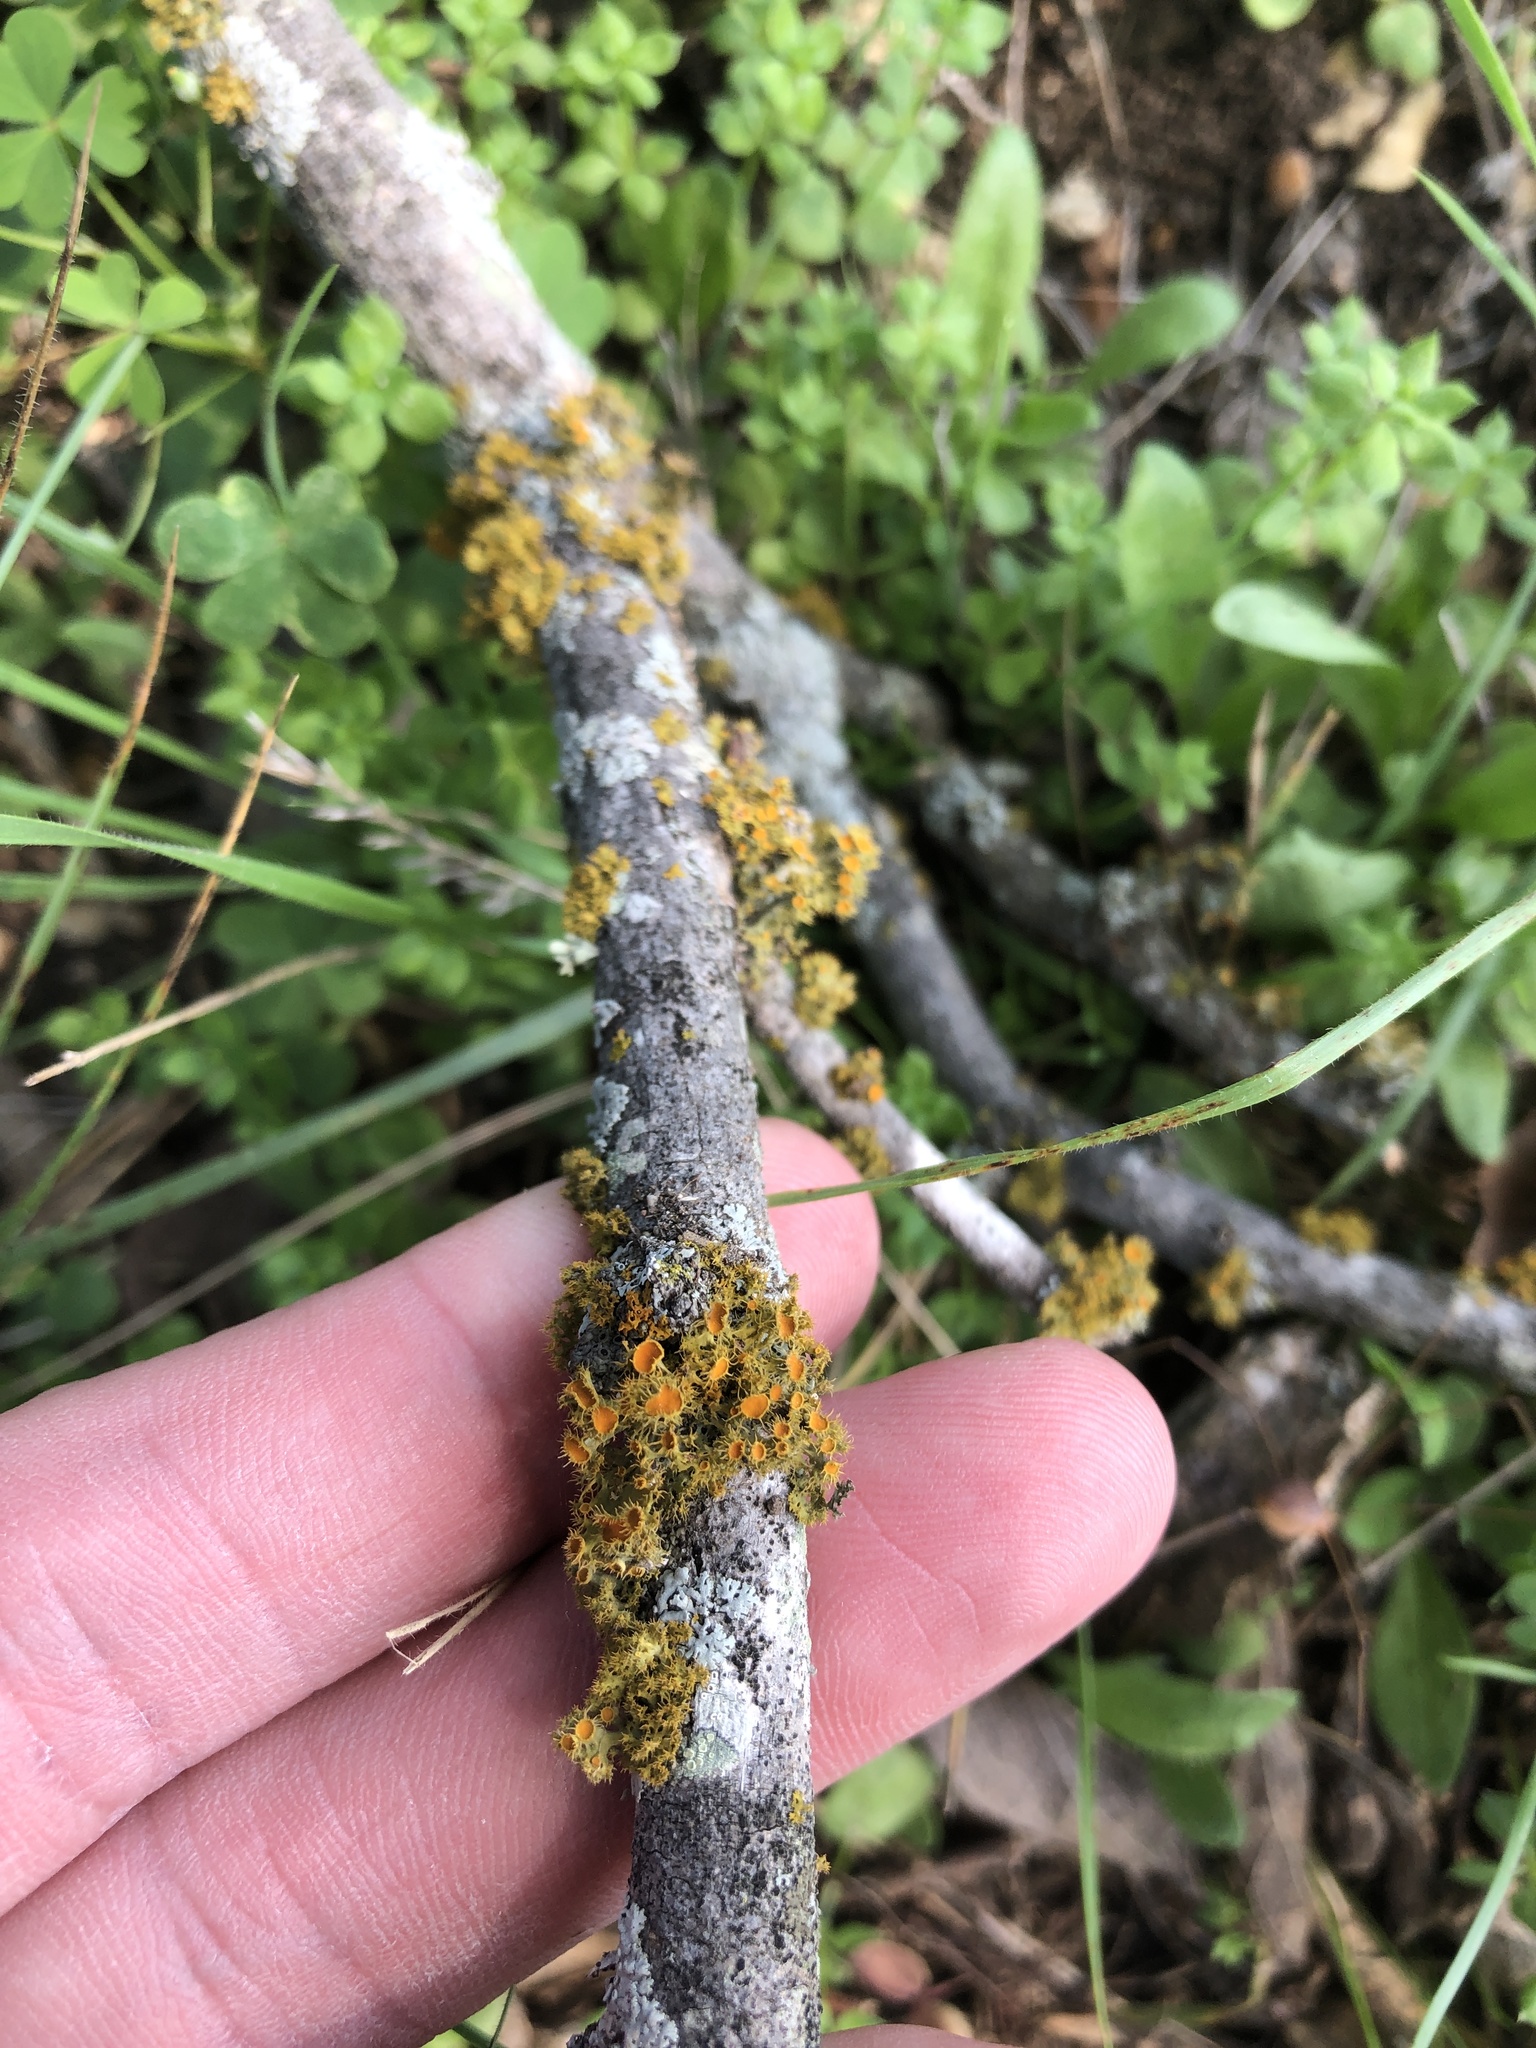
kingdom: Fungi
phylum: Ascomycota
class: Lecanoromycetes
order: Teloschistales
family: Teloschistaceae
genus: Niorma
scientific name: Niorma chrysophthalma
